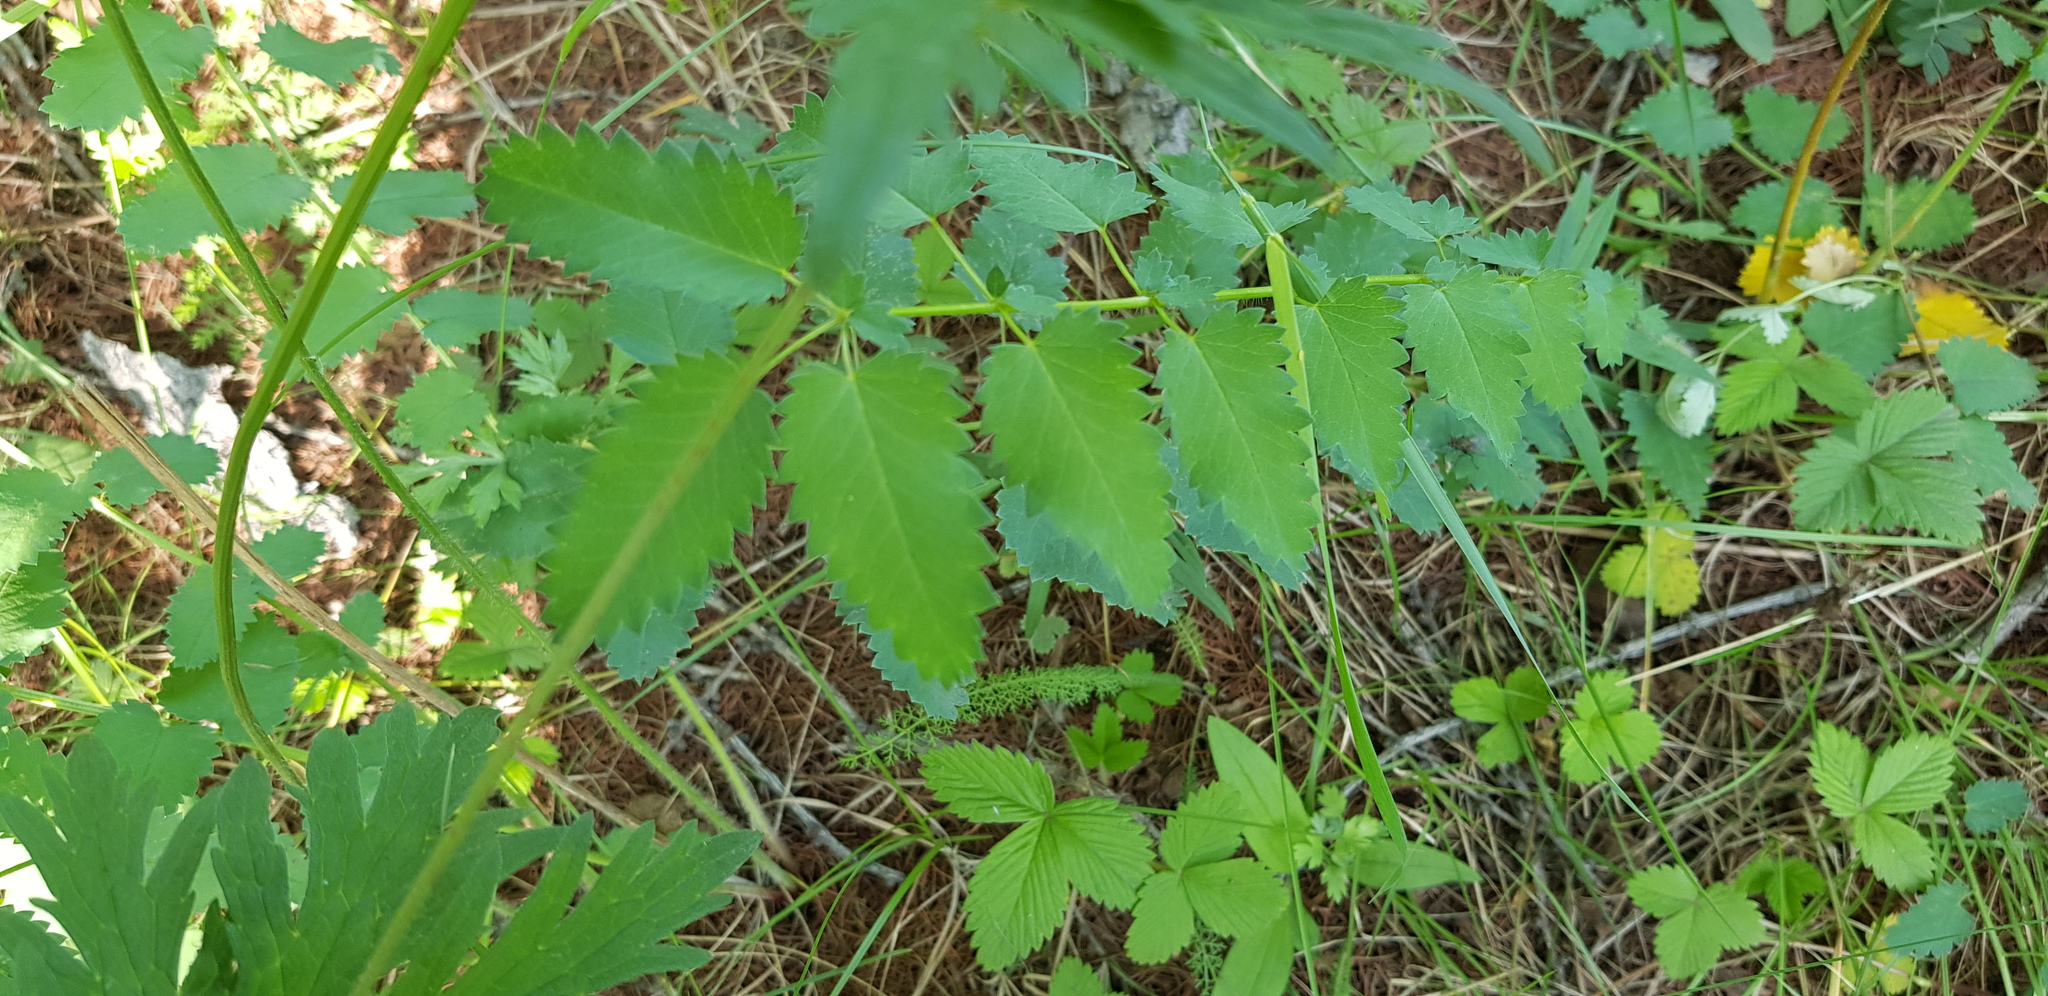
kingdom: Plantae
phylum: Tracheophyta
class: Magnoliopsida
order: Rosales
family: Rosaceae
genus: Sanguisorba
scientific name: Sanguisorba officinalis
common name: Great burnet
